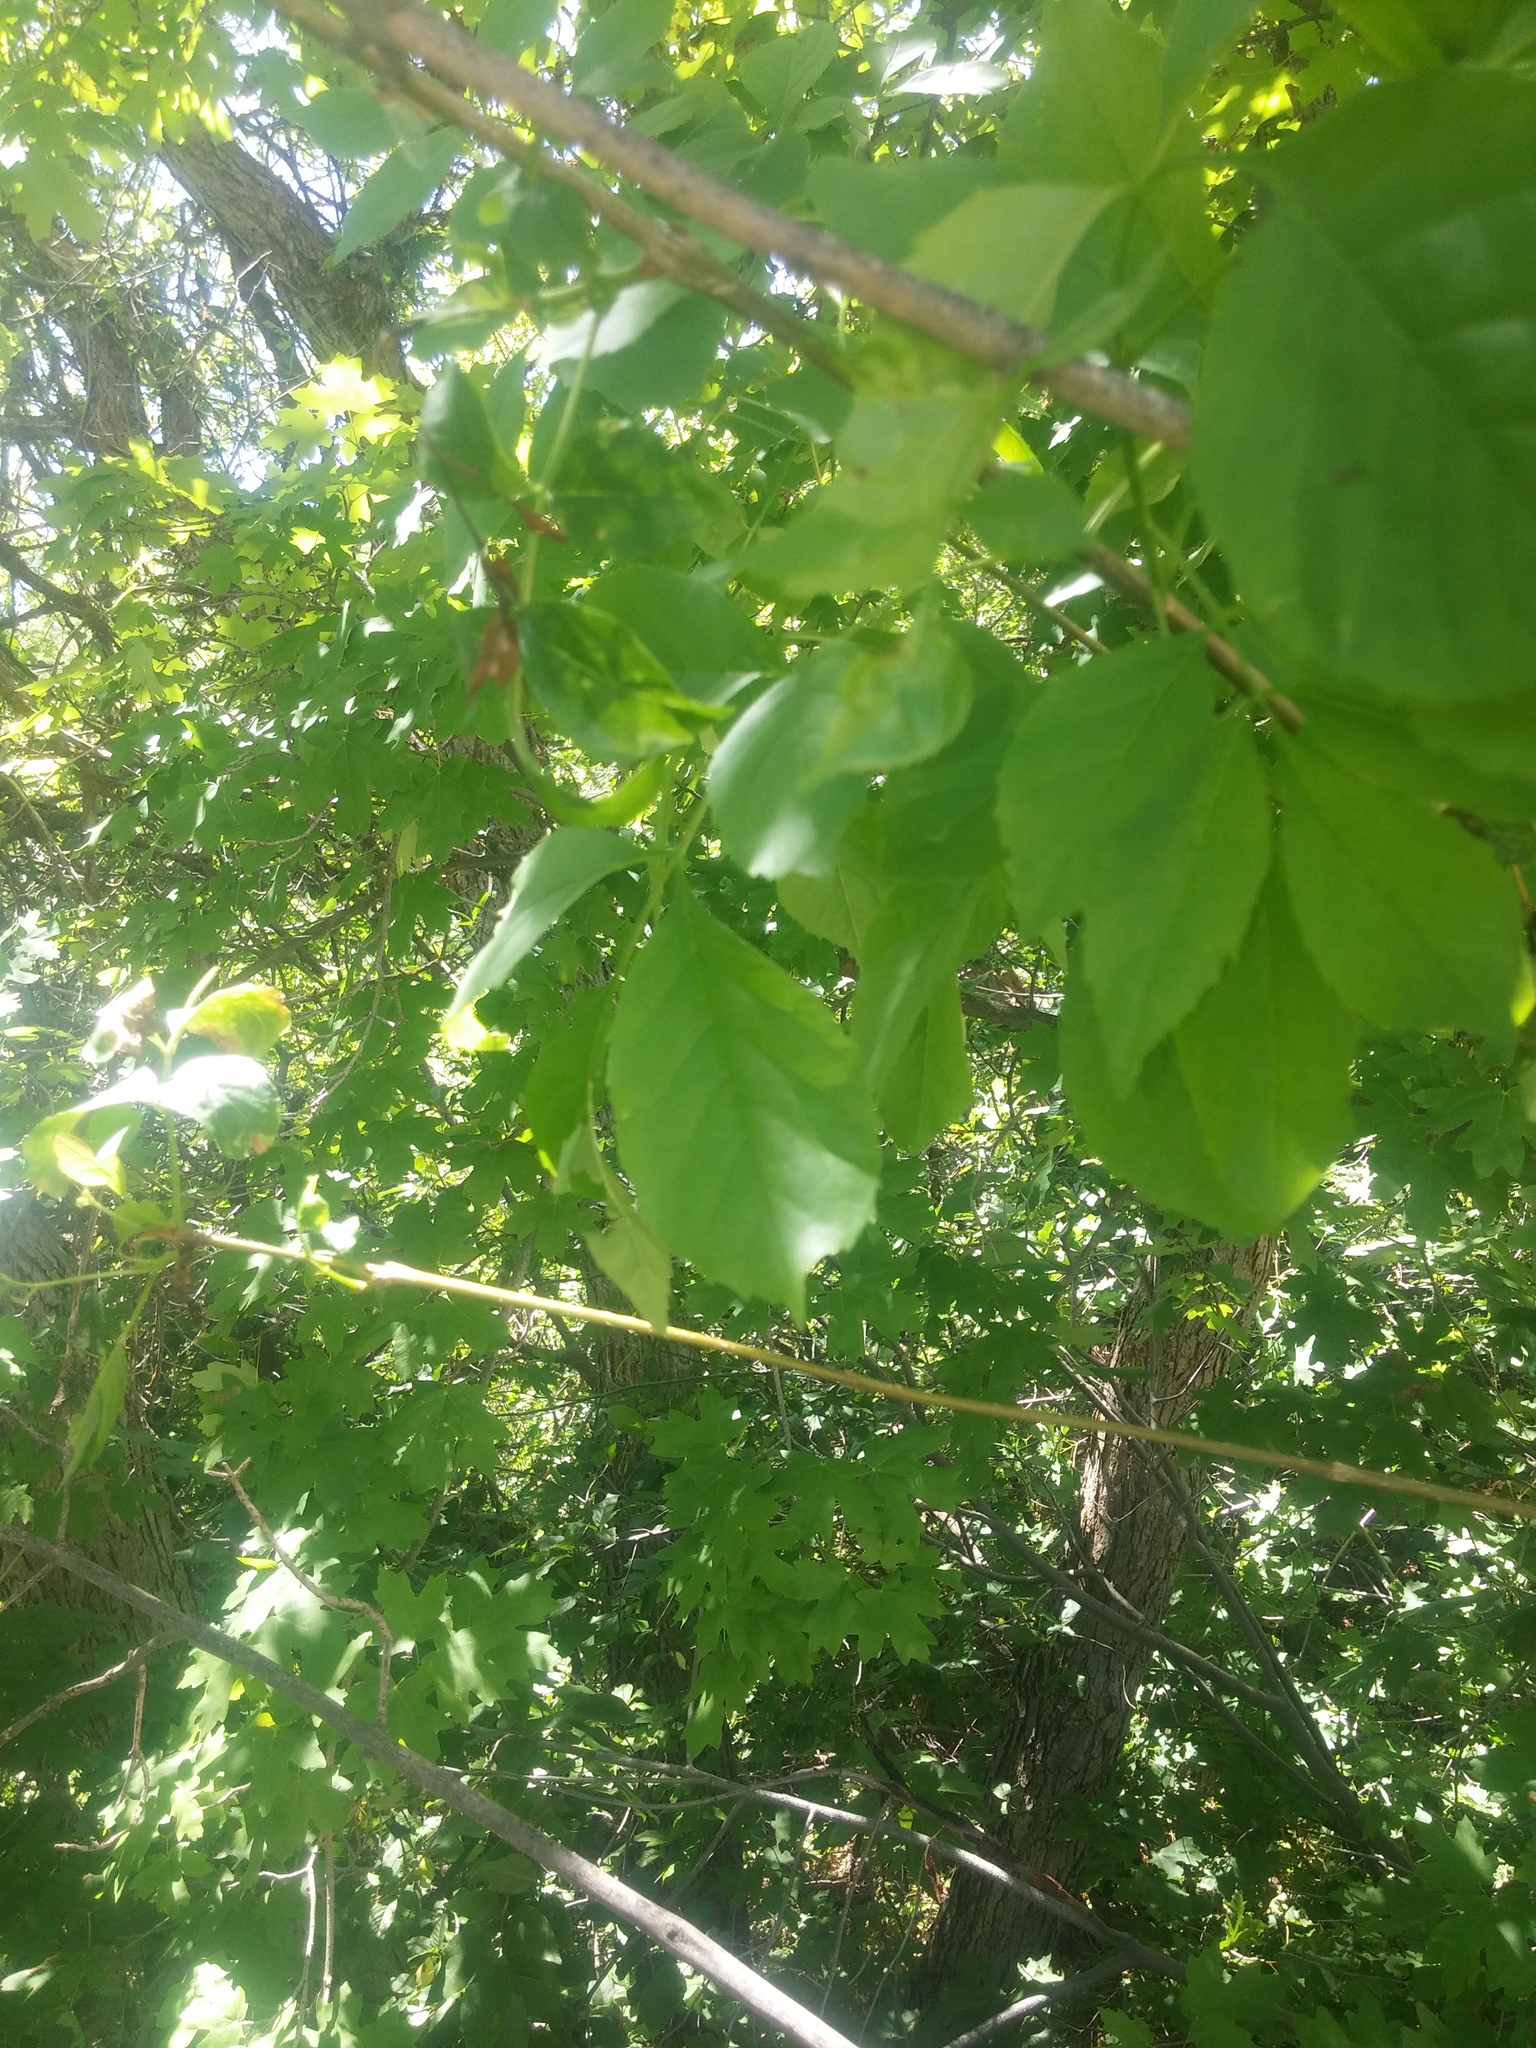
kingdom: Plantae
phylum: Tracheophyta
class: Magnoliopsida
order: Lamiales
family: Oleaceae
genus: Fraxinus
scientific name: Fraxinus pennsylvanica
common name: Green ash
